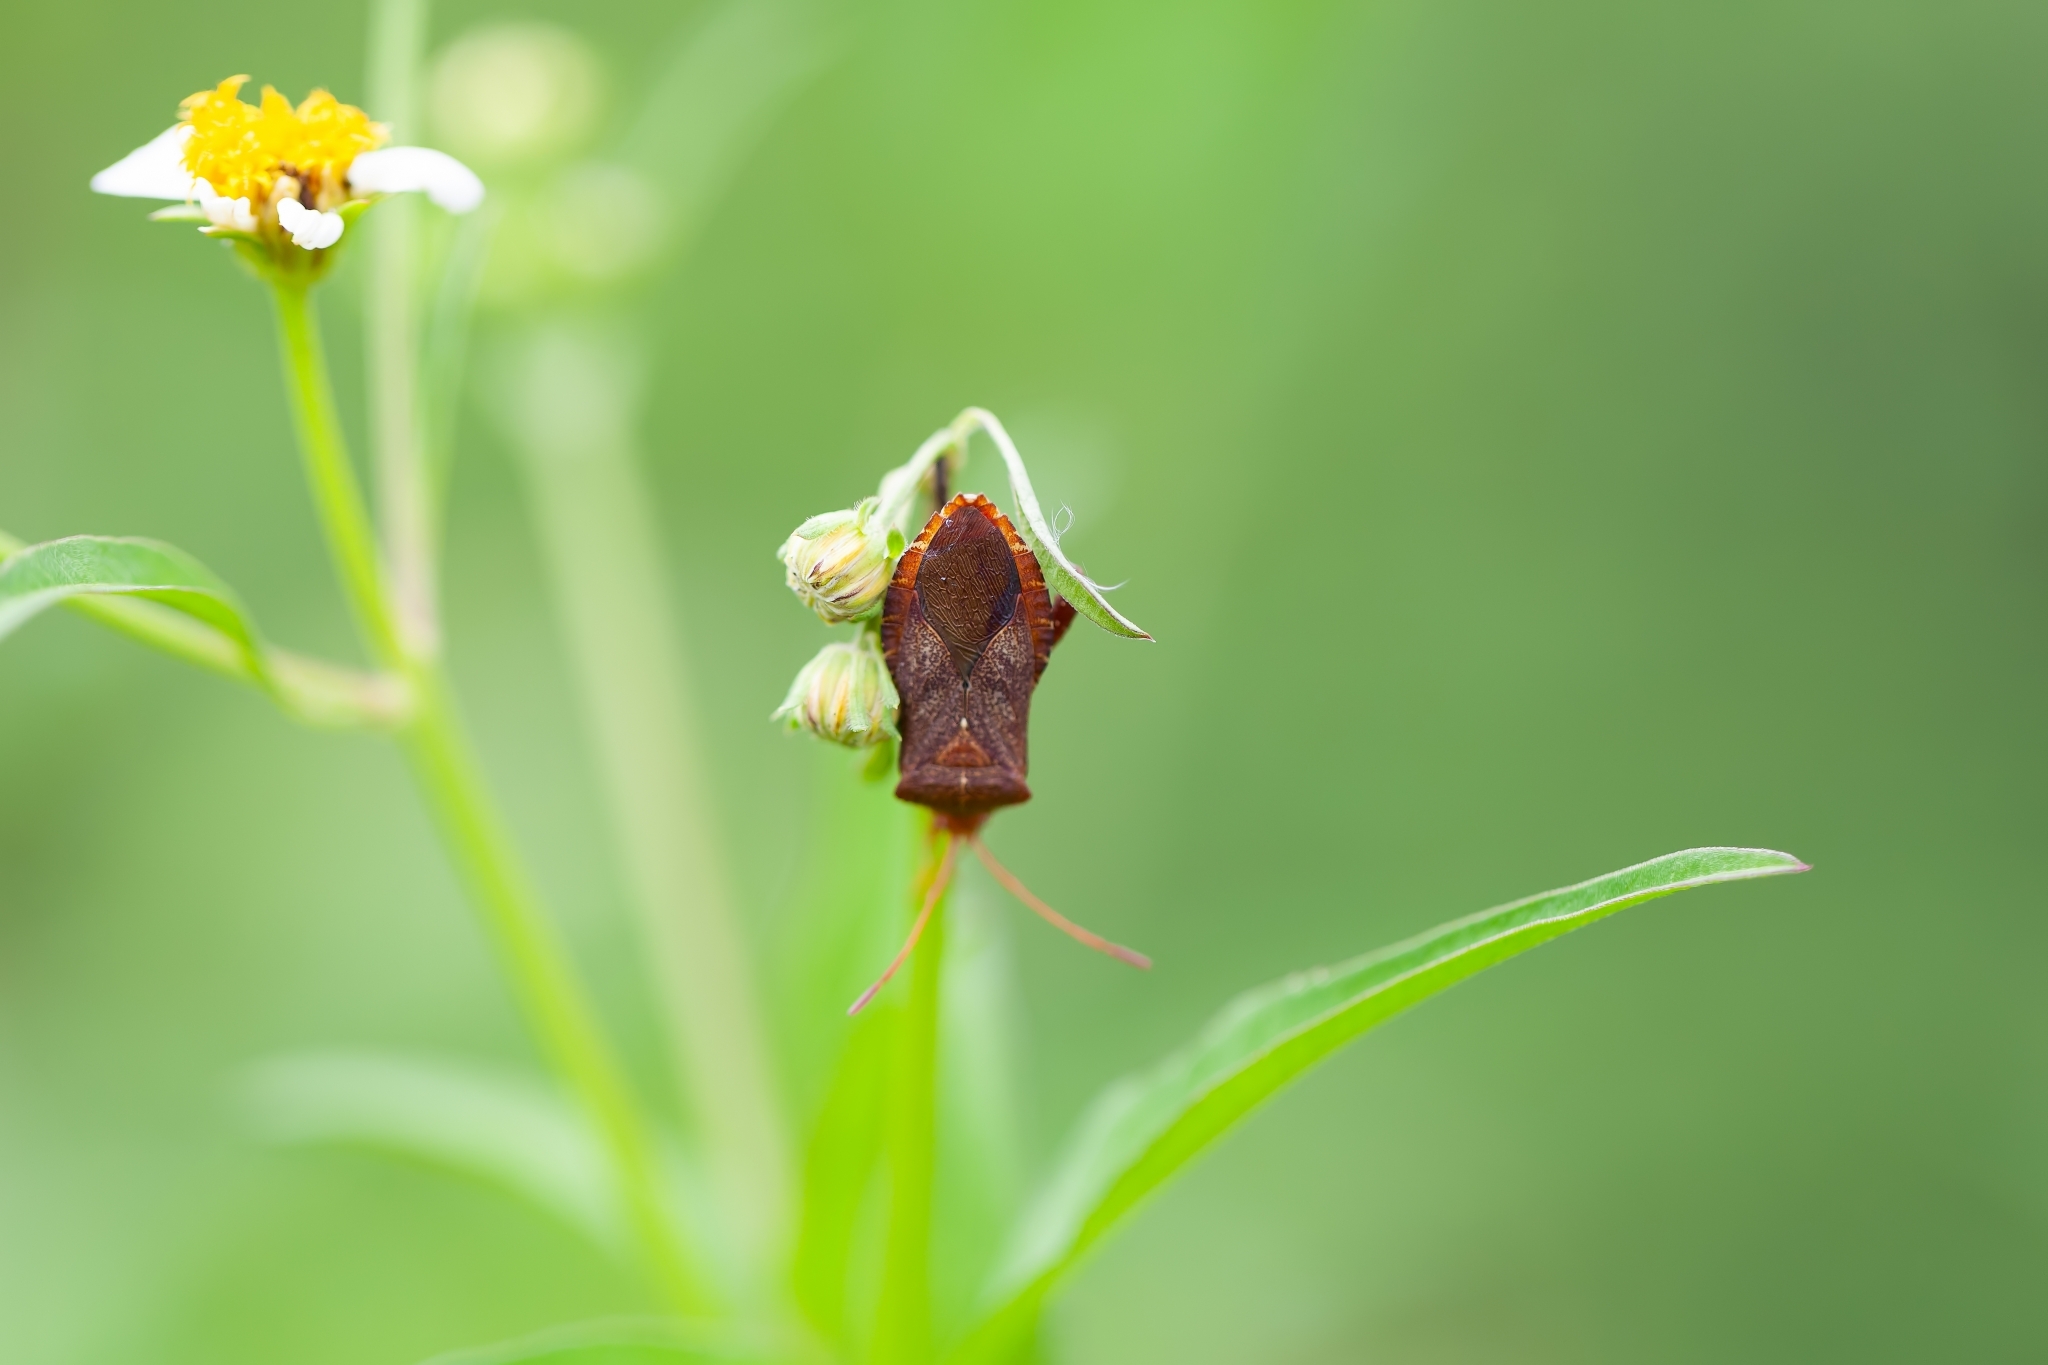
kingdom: Animalia
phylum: Arthropoda
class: Insecta
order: Hemiptera
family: Coreidae
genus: Euthochtha
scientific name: Euthochtha galeator
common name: Helmeted squash bug
